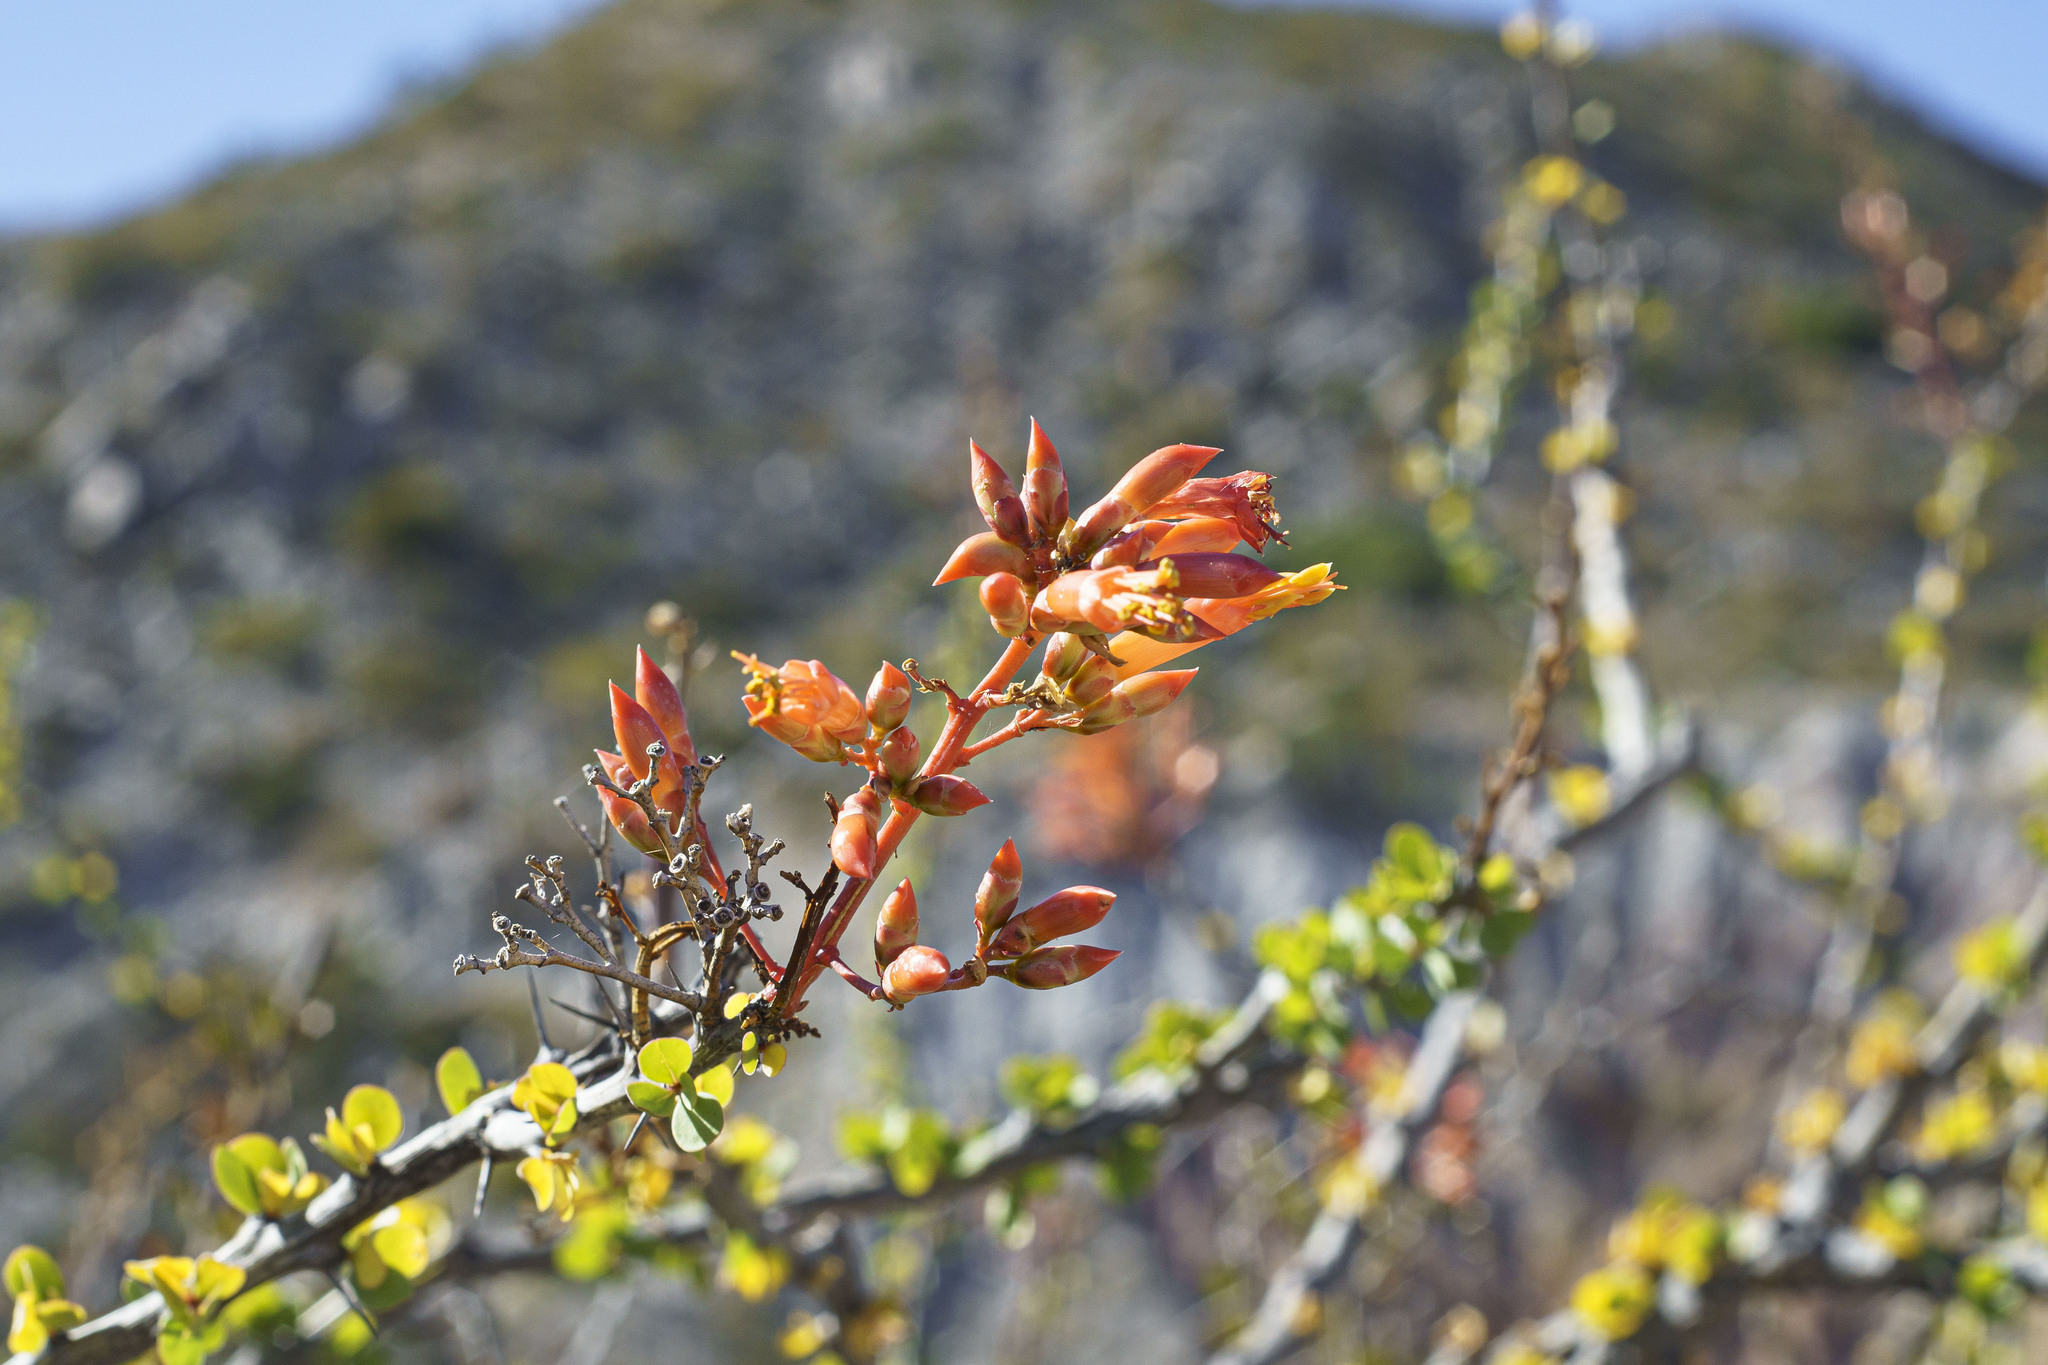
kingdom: Plantae
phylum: Tracheophyta
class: Magnoliopsida
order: Ericales
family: Fouquieriaceae
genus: Fouquieria
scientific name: Fouquieria diguetii
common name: Adam's tree
